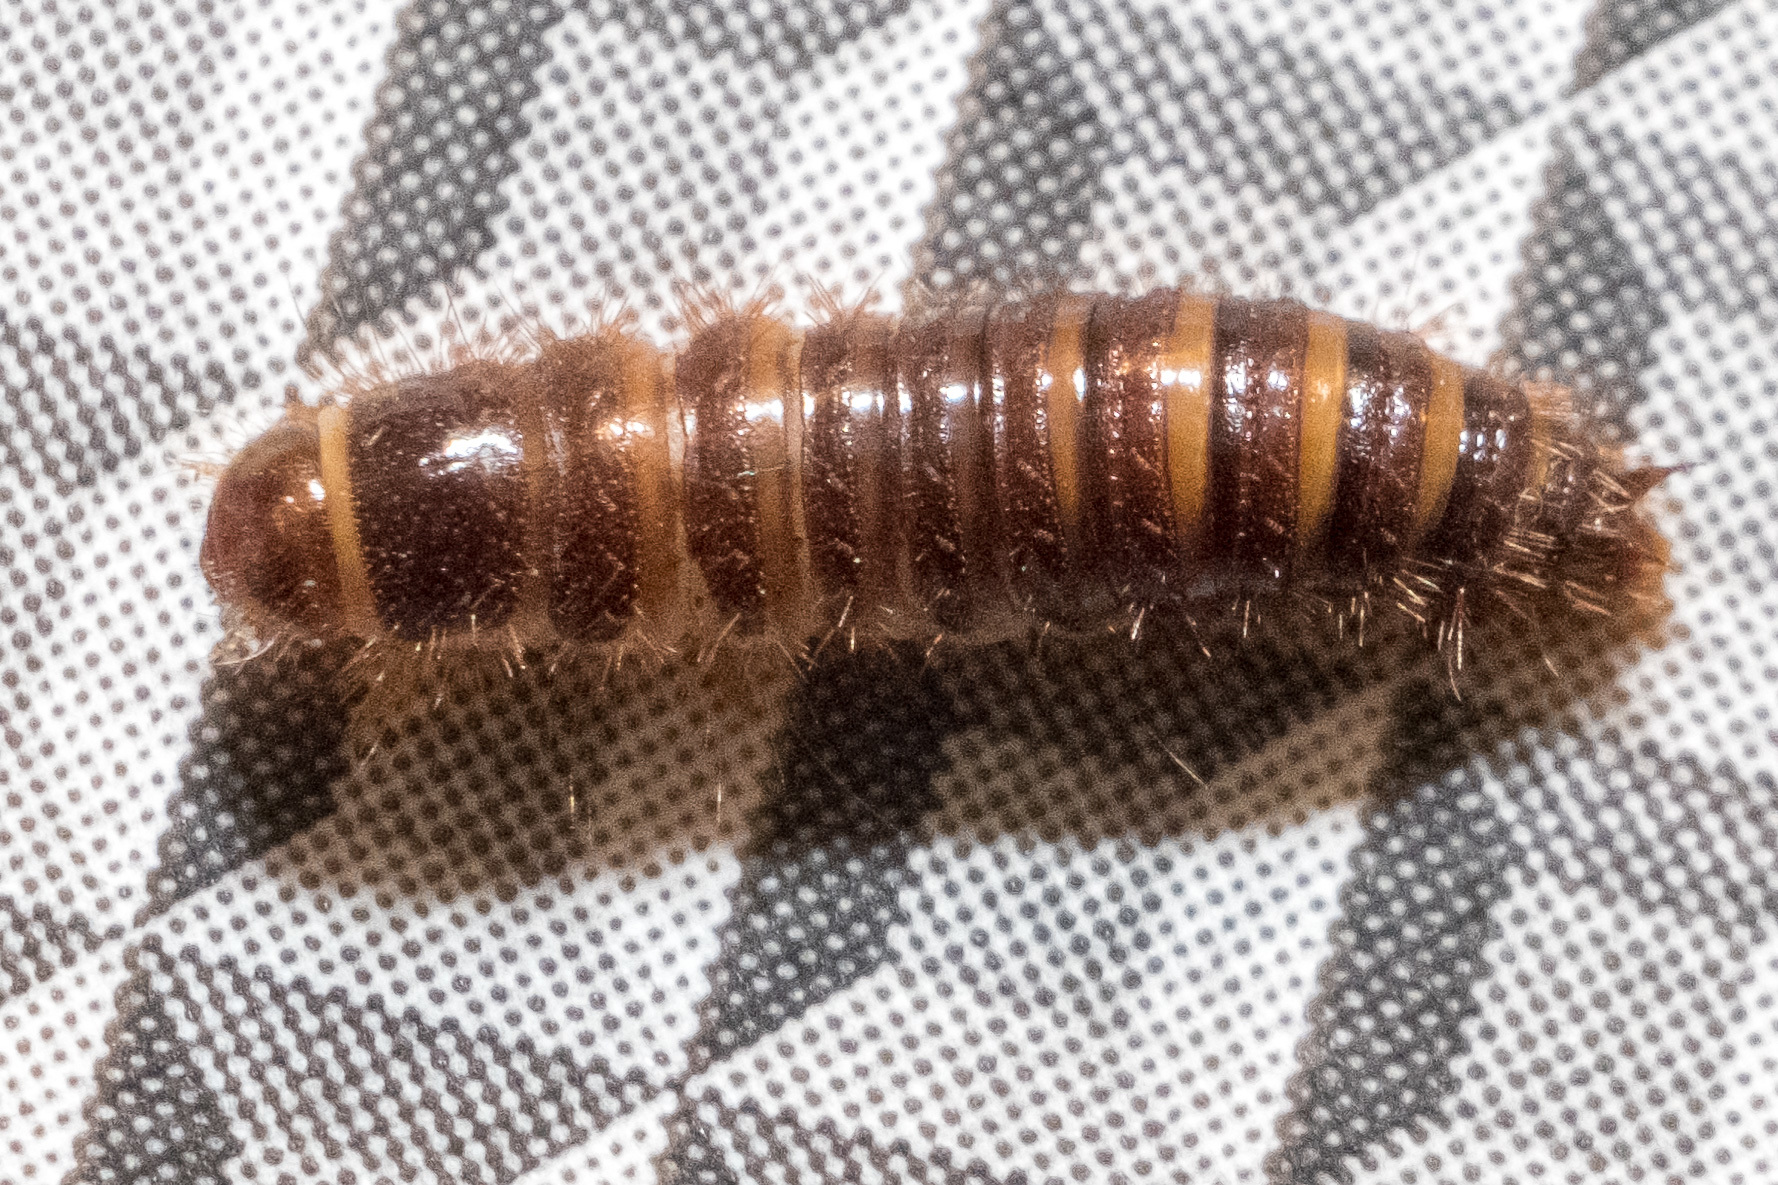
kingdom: Animalia
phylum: Arthropoda
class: Insecta
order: Coleoptera
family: Dermestidae
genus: Dermestes
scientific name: Dermestes lardarius
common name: Larder beetle
